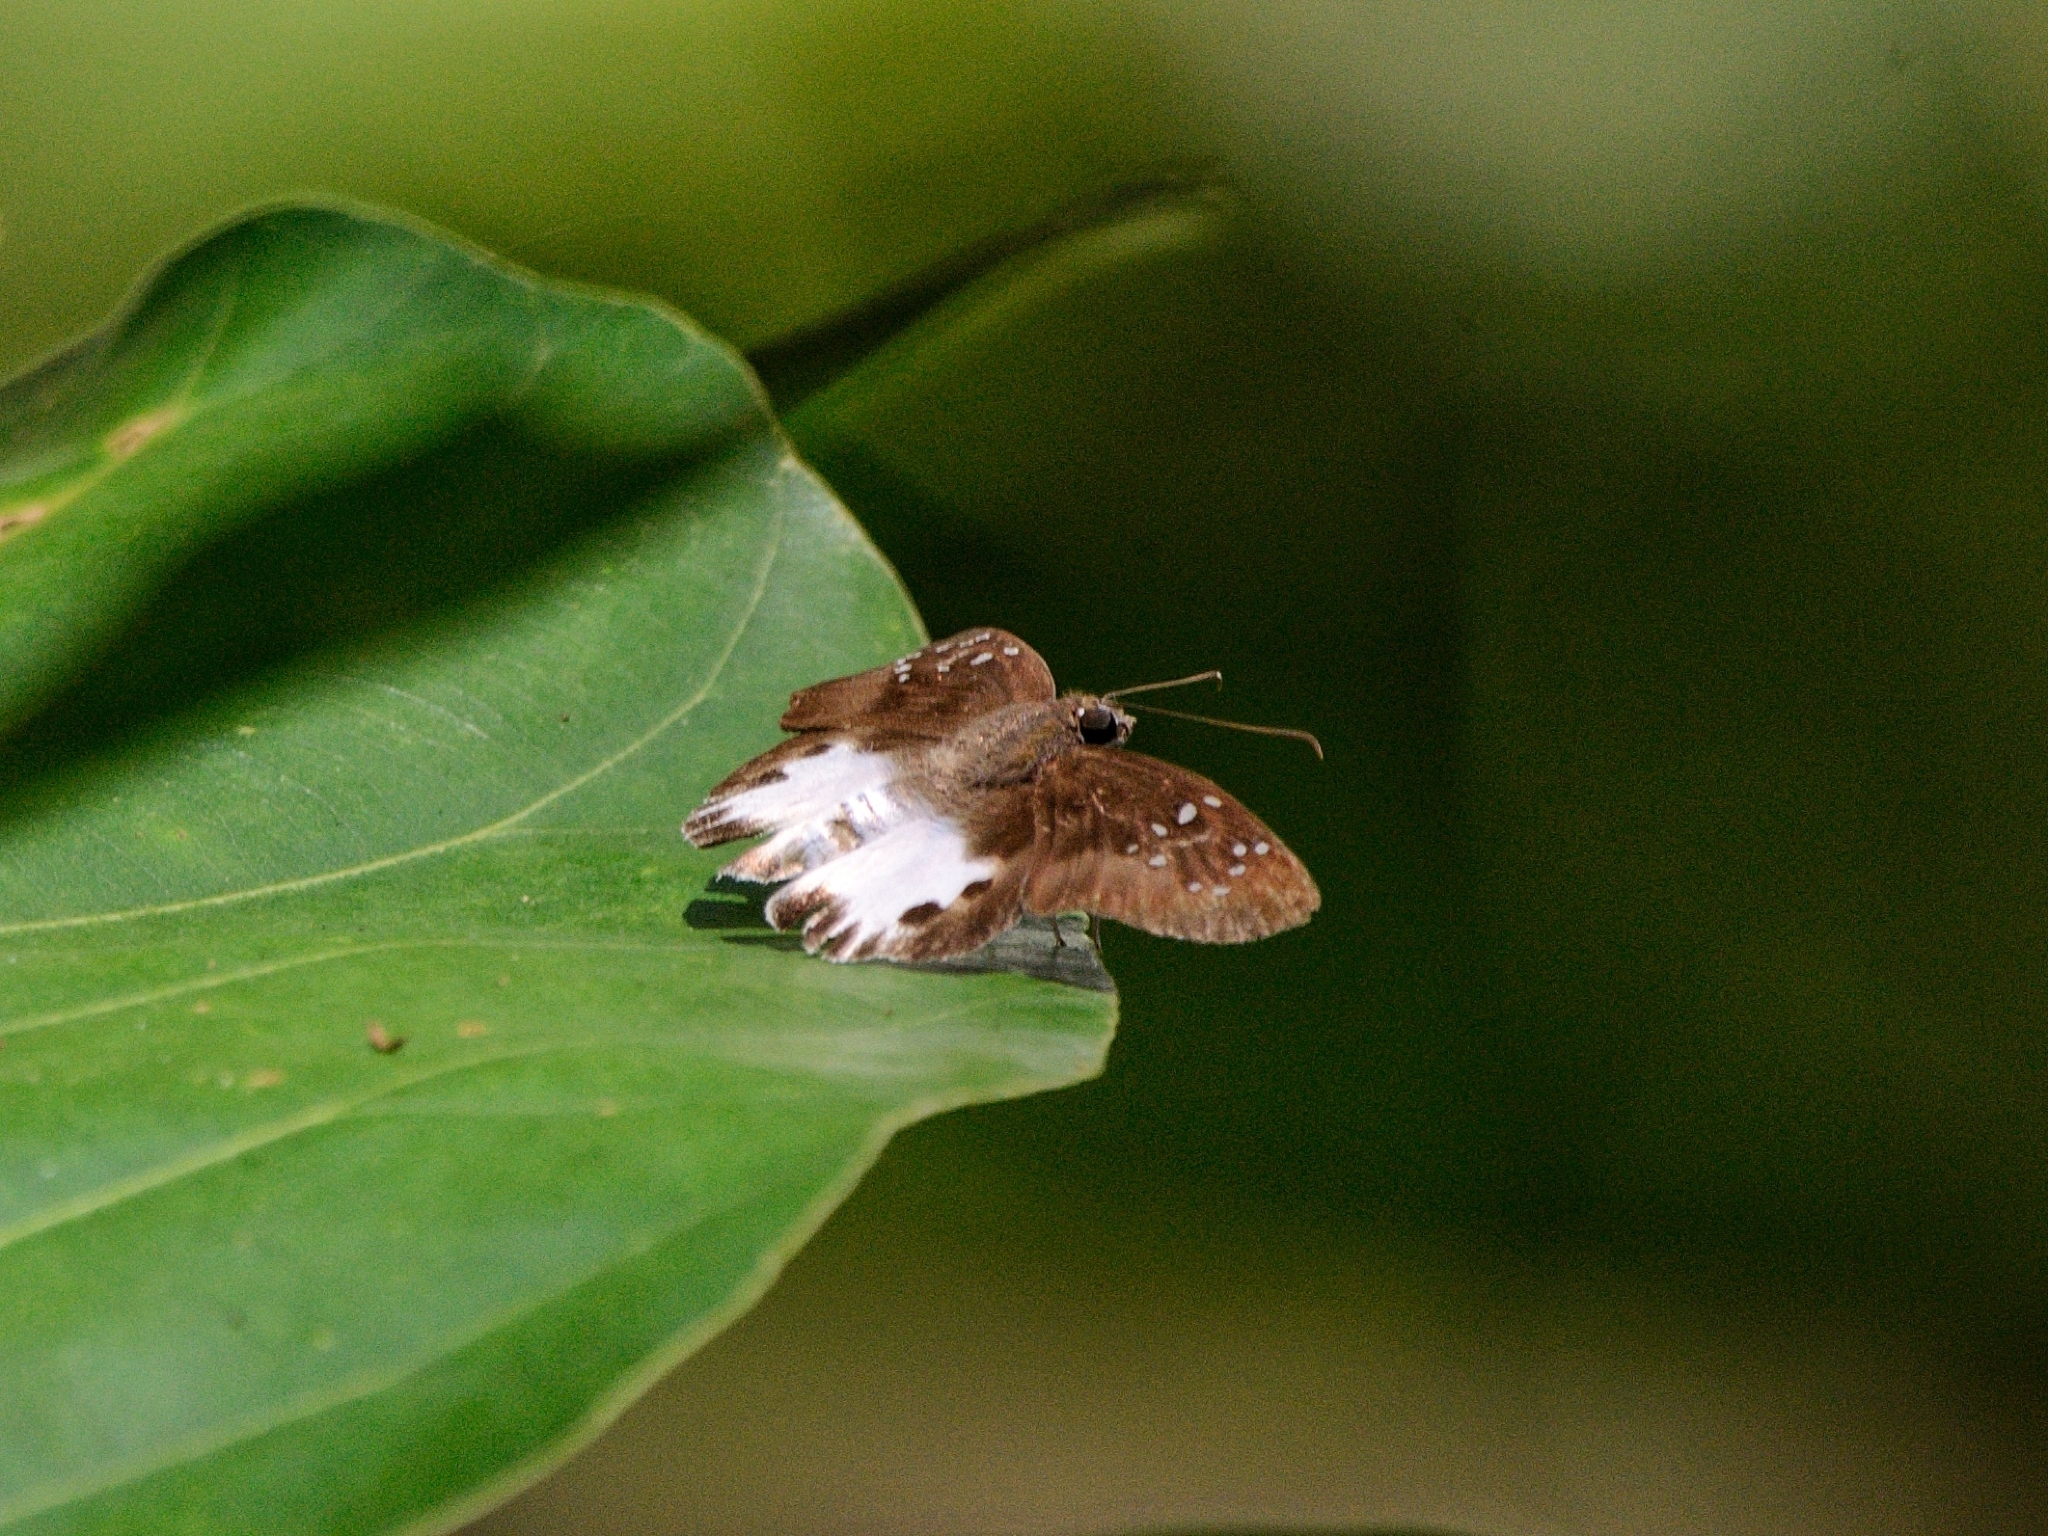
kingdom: Animalia
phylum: Arthropoda
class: Insecta
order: Lepidoptera
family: Hesperiidae
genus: Tagiades
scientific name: Tagiades litigiosa
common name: Water snow flat
